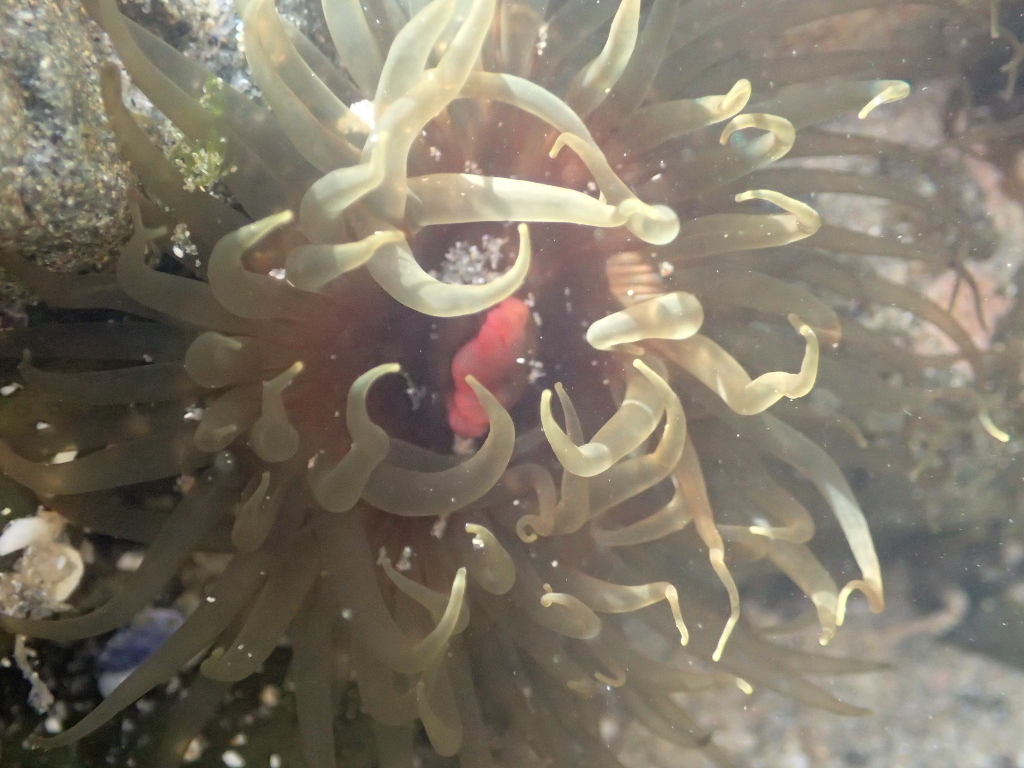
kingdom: Animalia
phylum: Cnidaria
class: Anthozoa
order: Actiniaria
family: Actiniidae
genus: Isactinia
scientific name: Isactinia olivacea
